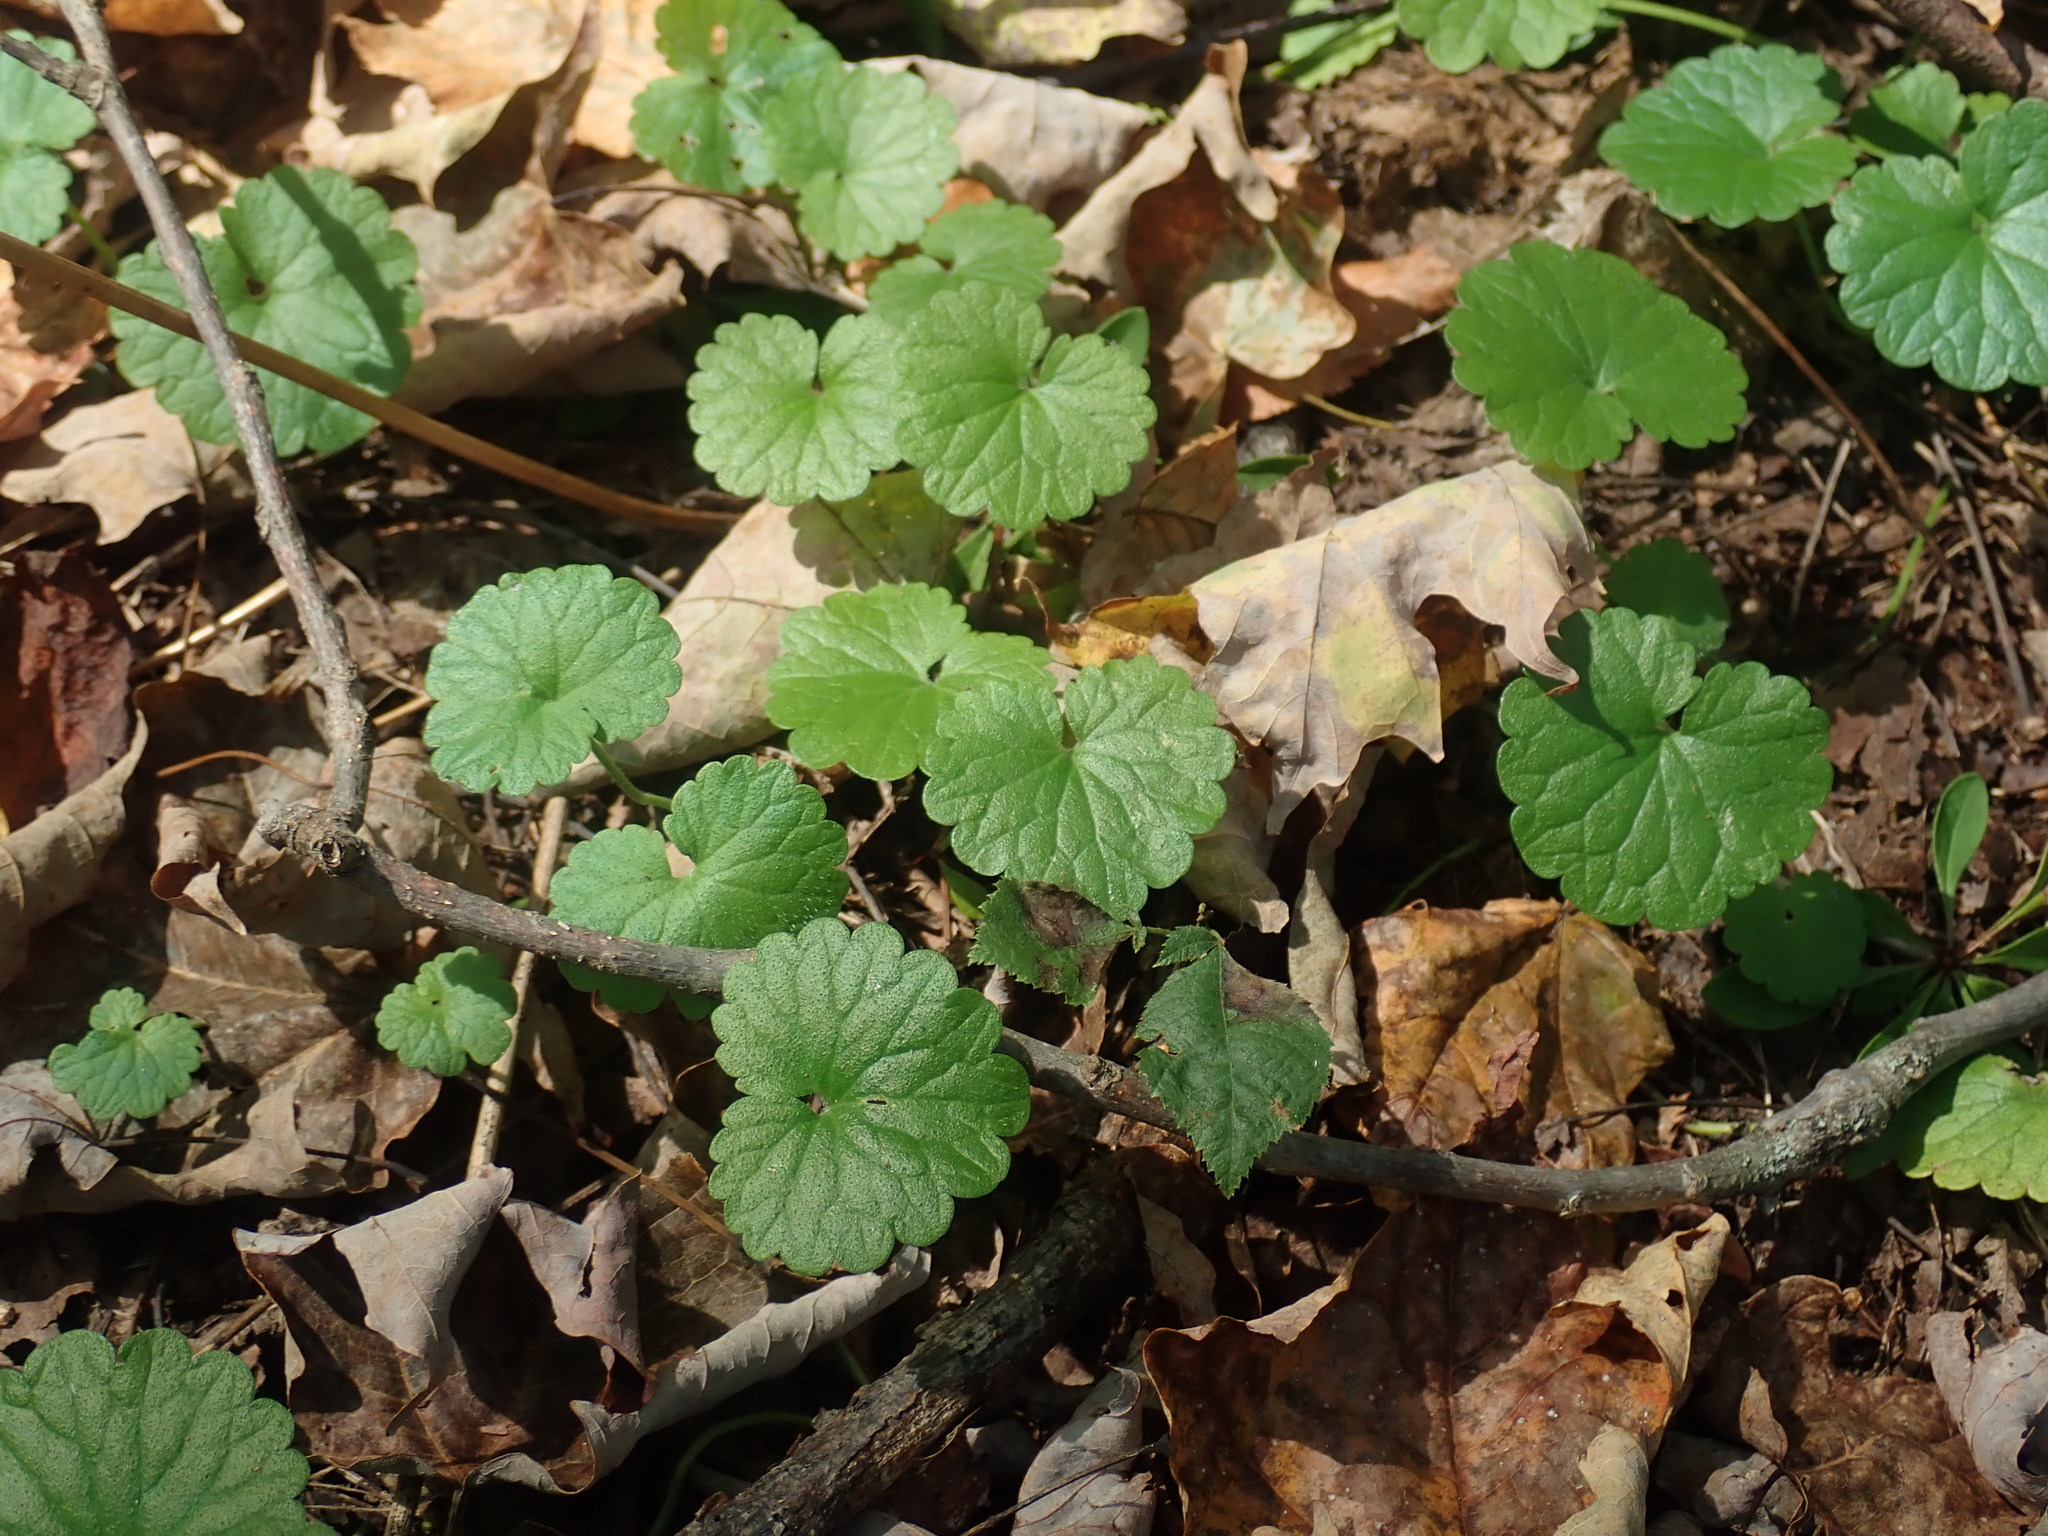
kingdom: Plantae
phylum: Tracheophyta
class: Magnoliopsida
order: Lamiales
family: Lamiaceae
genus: Glechoma
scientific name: Glechoma hederacea
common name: Ground ivy
